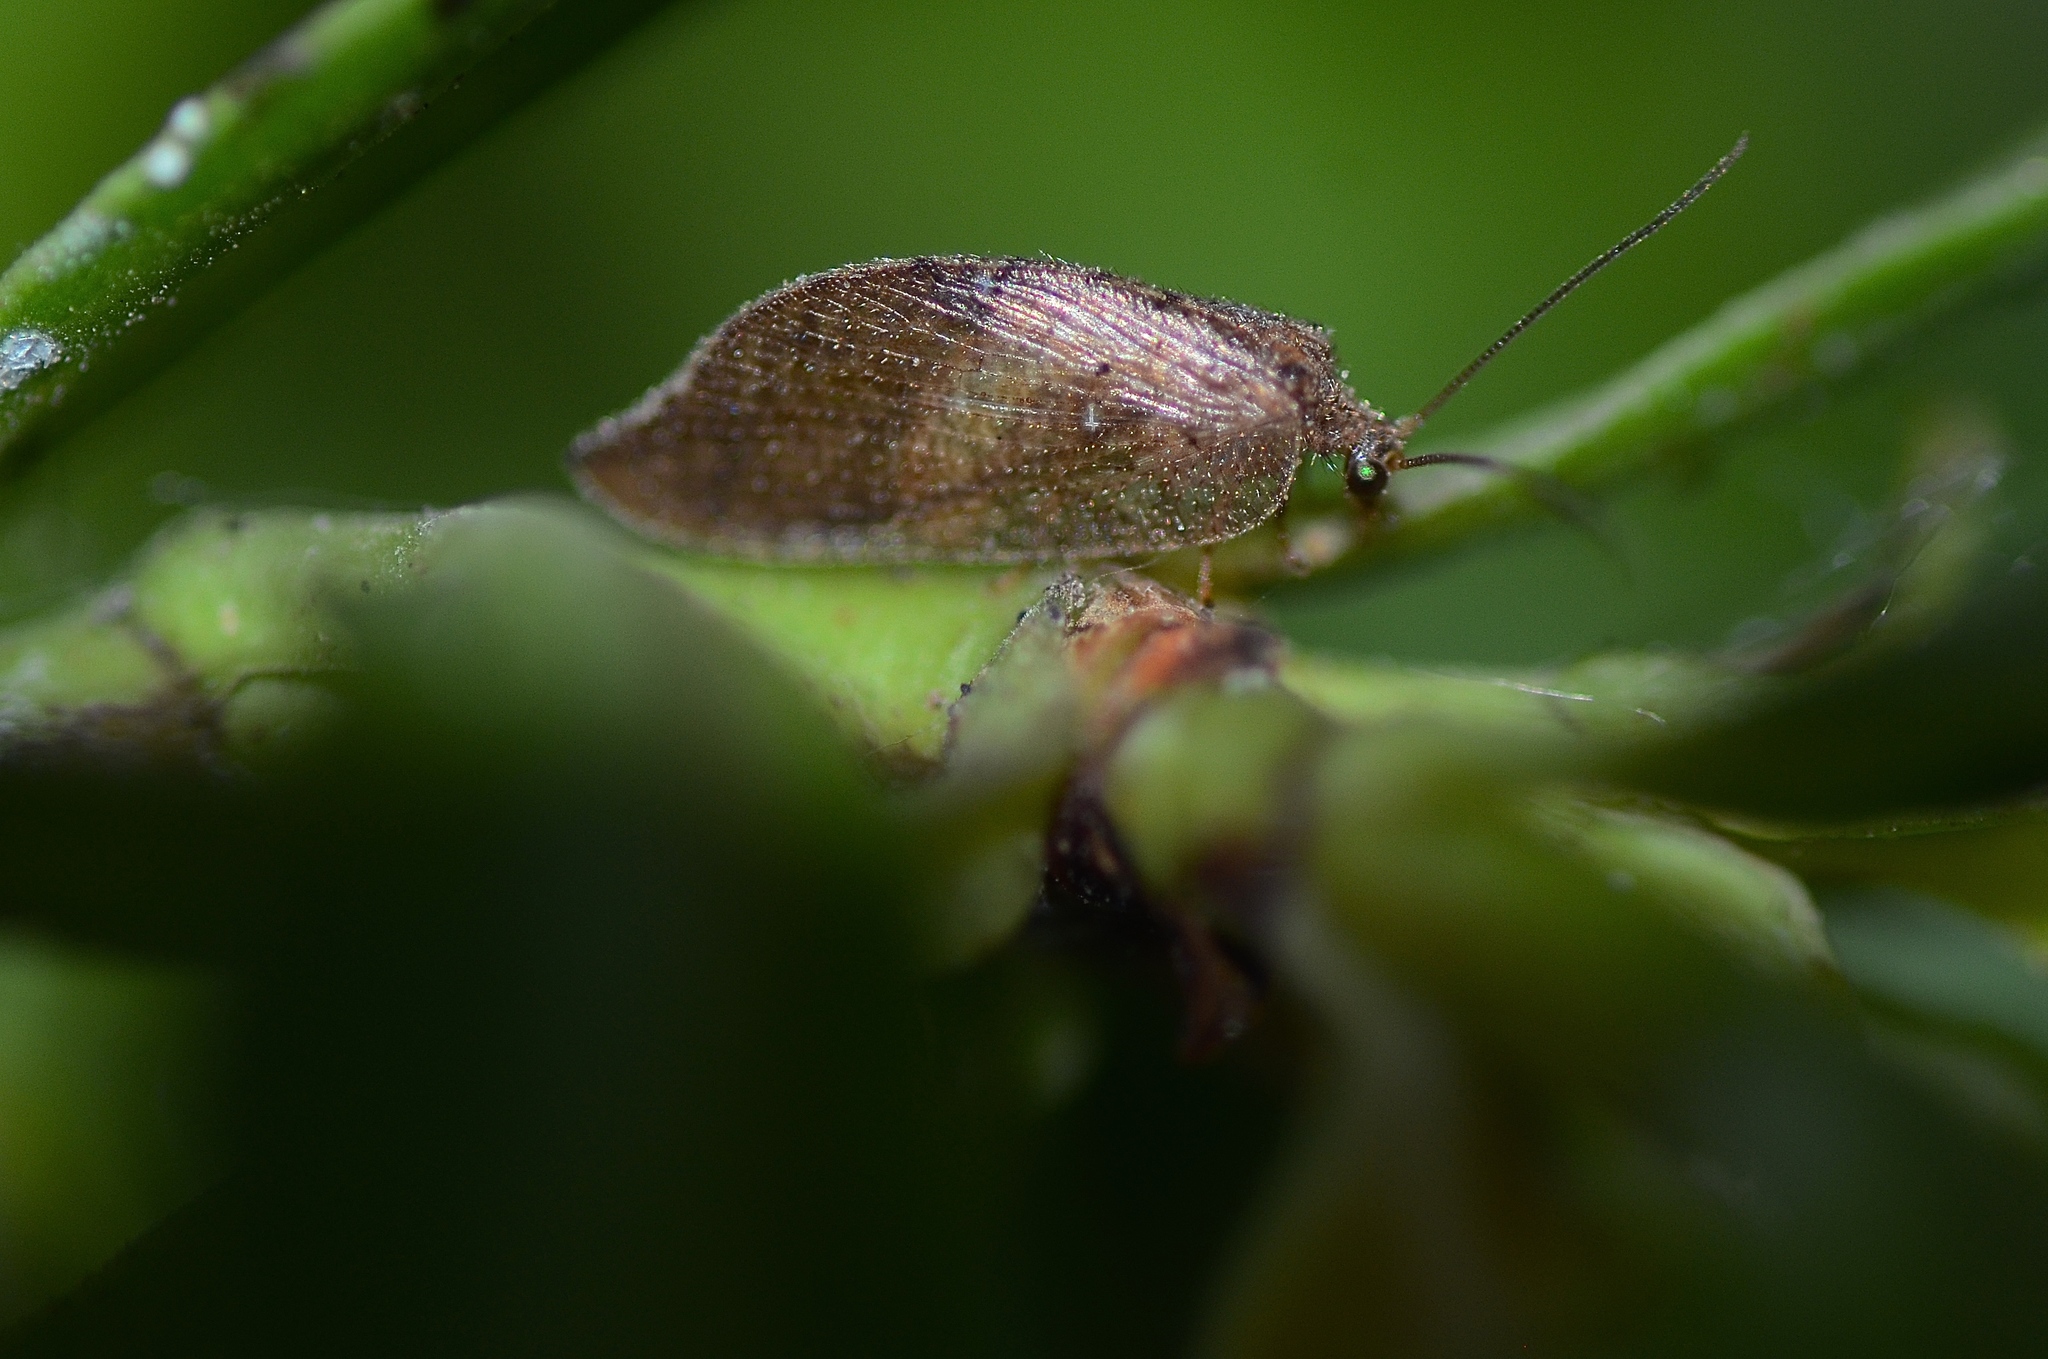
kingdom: Animalia
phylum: Arthropoda
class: Insecta
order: Neuroptera
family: Hemerobiidae
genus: Drepanacra
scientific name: Drepanacra binocula
